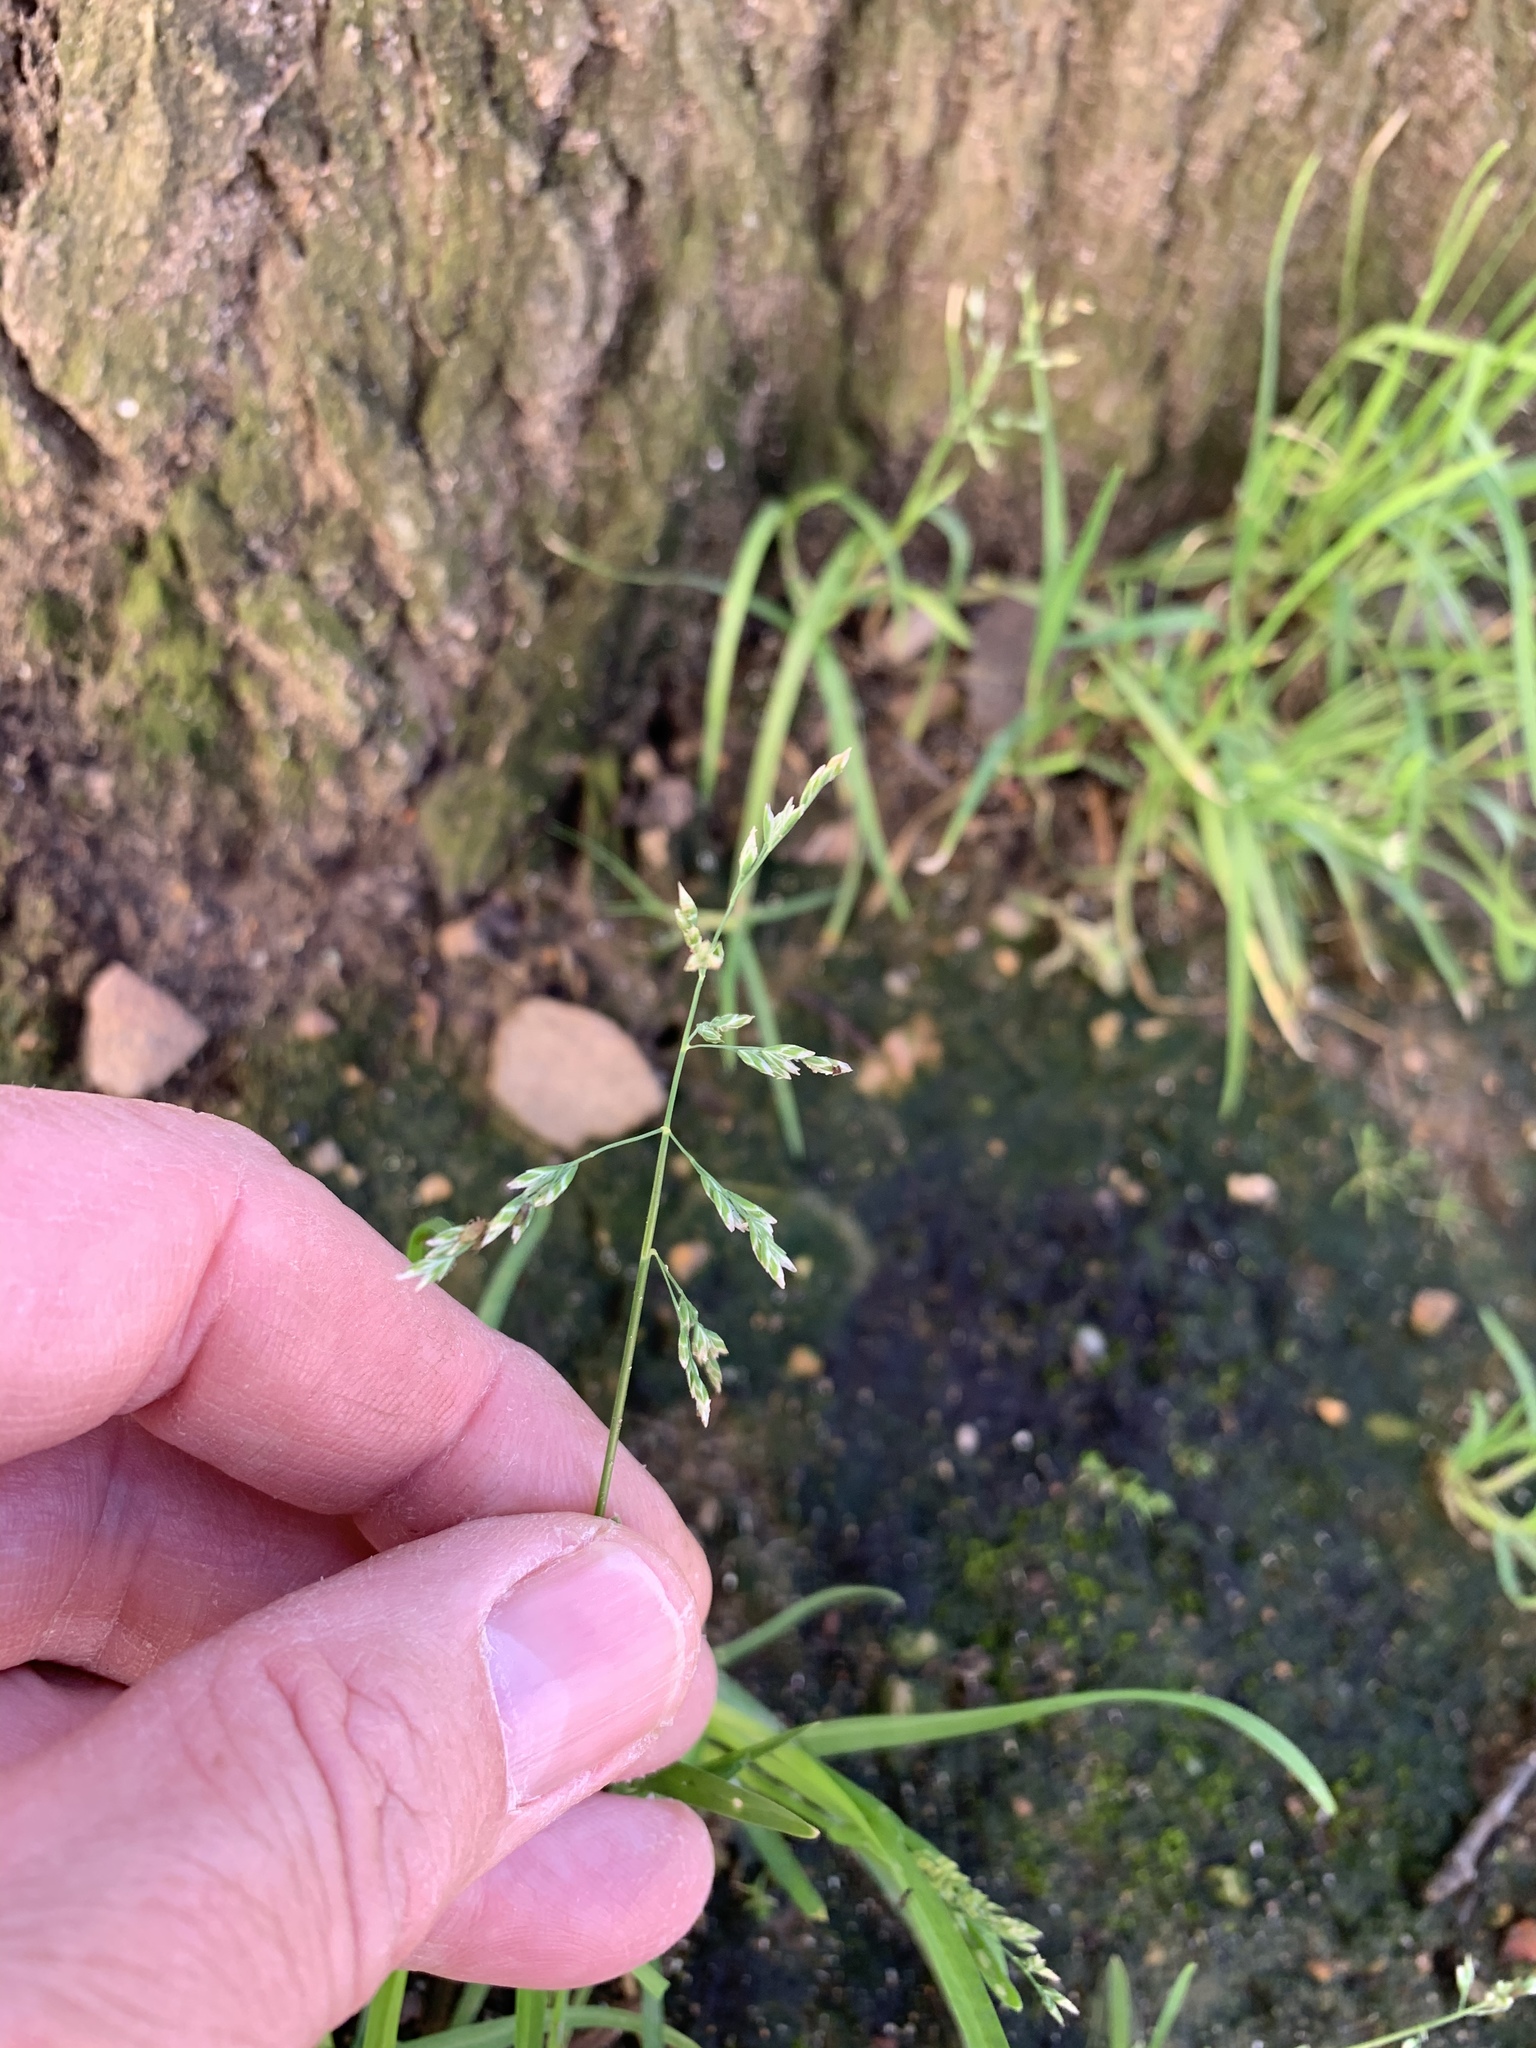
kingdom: Plantae
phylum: Tracheophyta
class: Liliopsida
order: Poales
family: Poaceae
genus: Poa
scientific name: Poa annua
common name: Annual bluegrass
